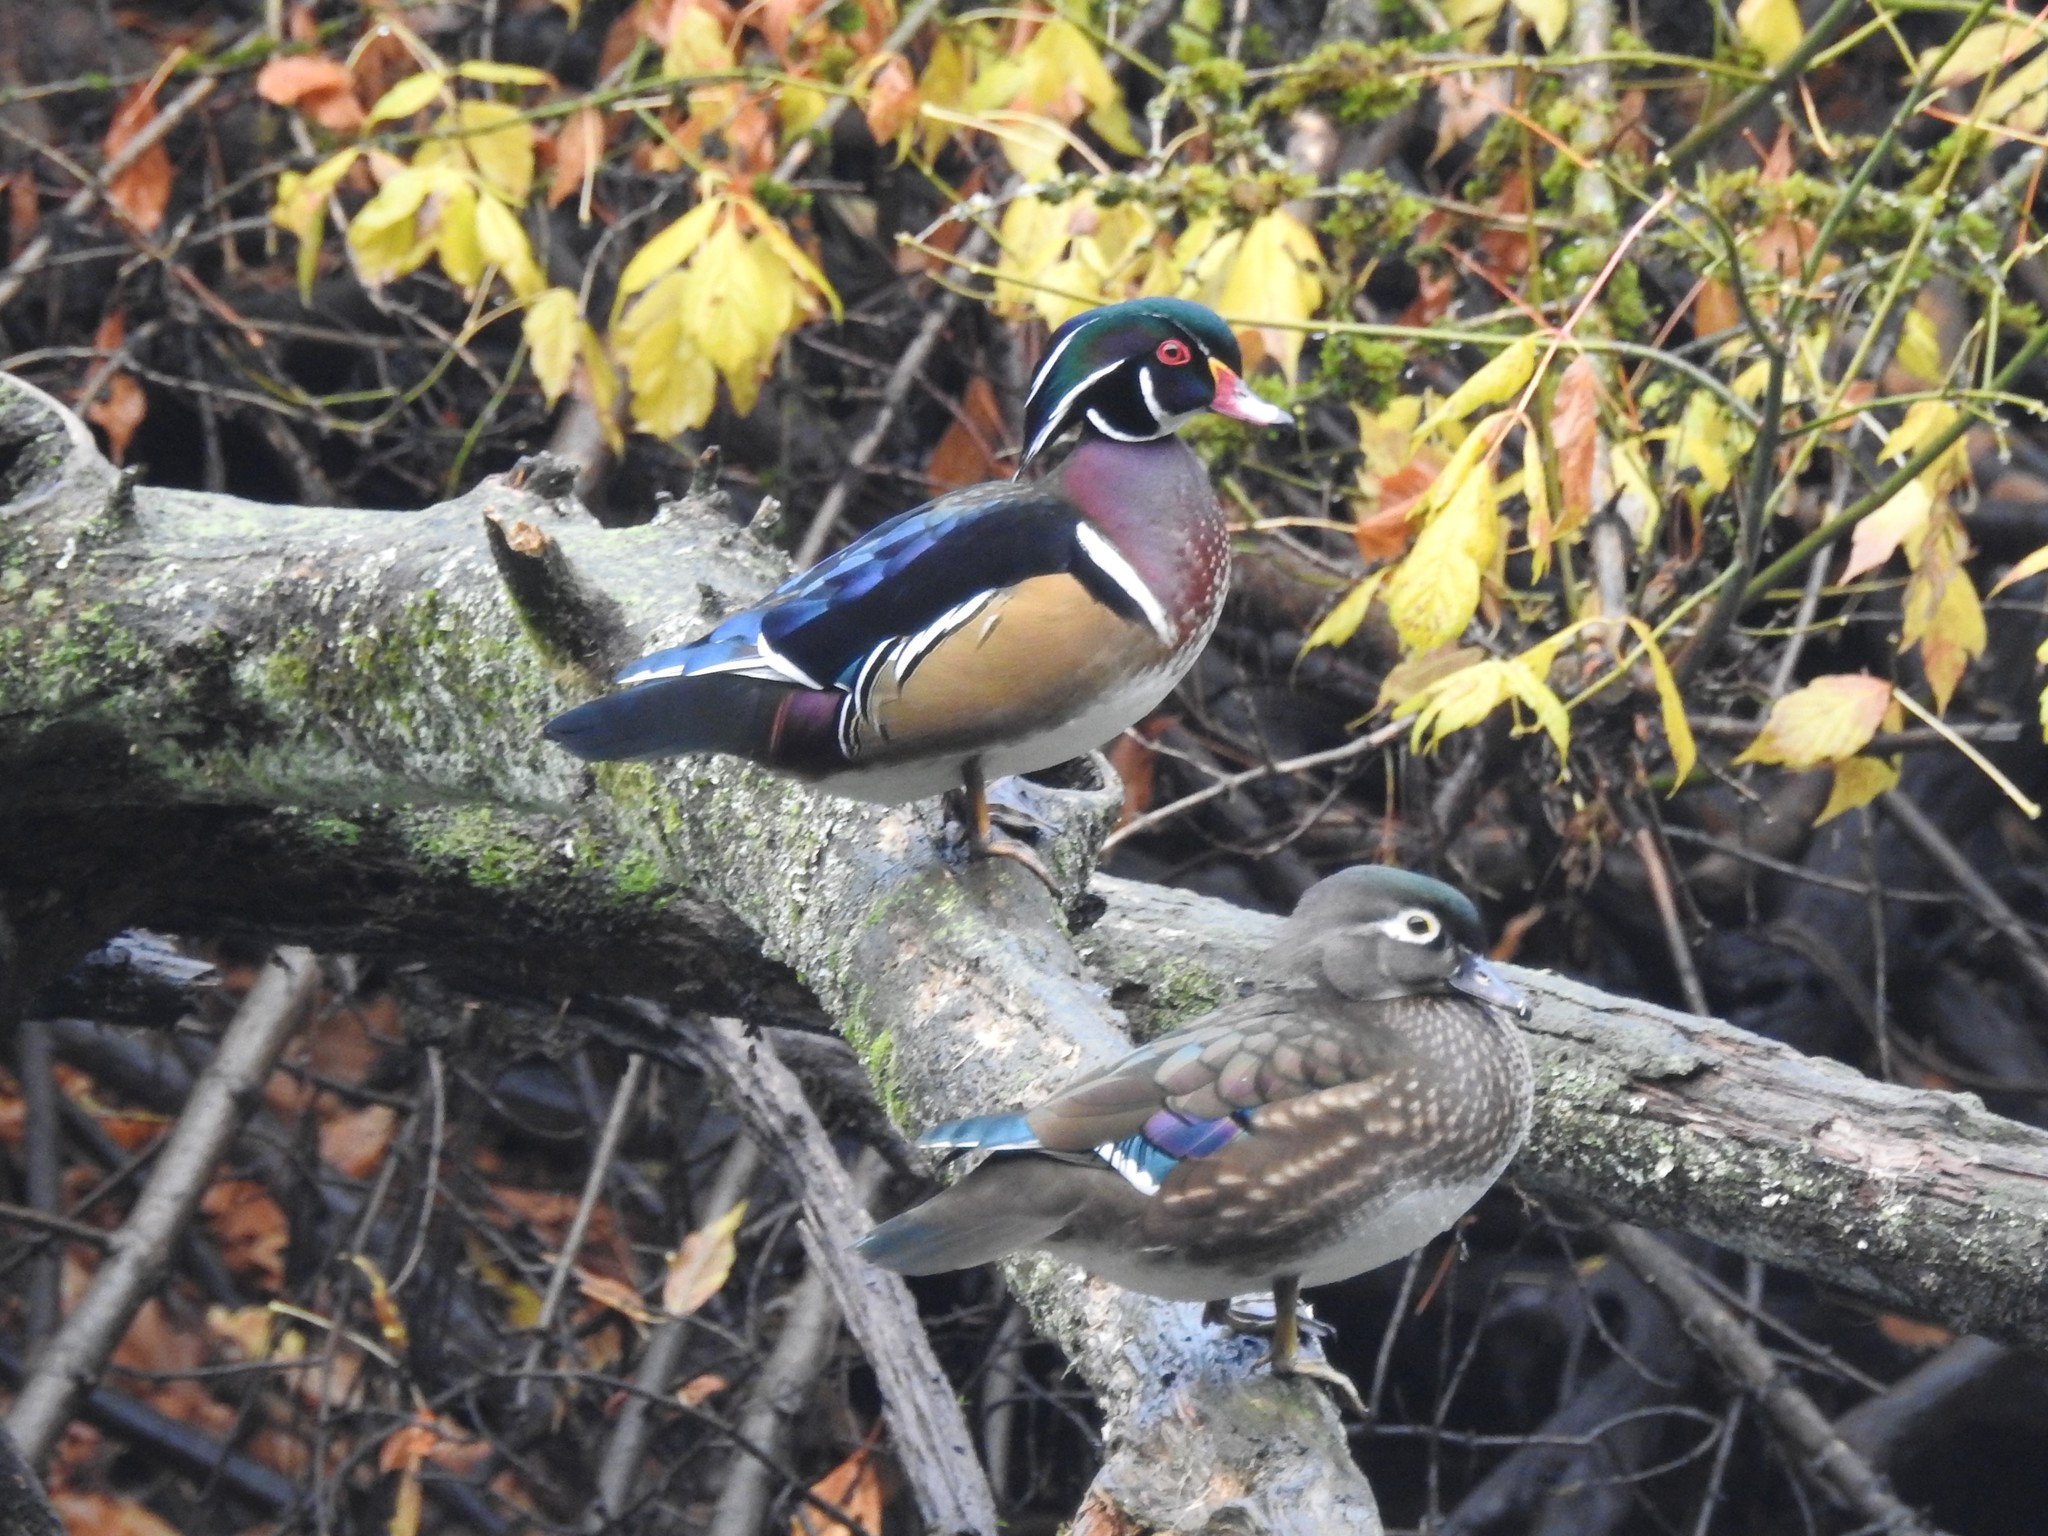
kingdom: Animalia
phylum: Chordata
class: Aves
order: Anseriformes
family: Anatidae
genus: Aix
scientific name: Aix sponsa
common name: Wood duck
